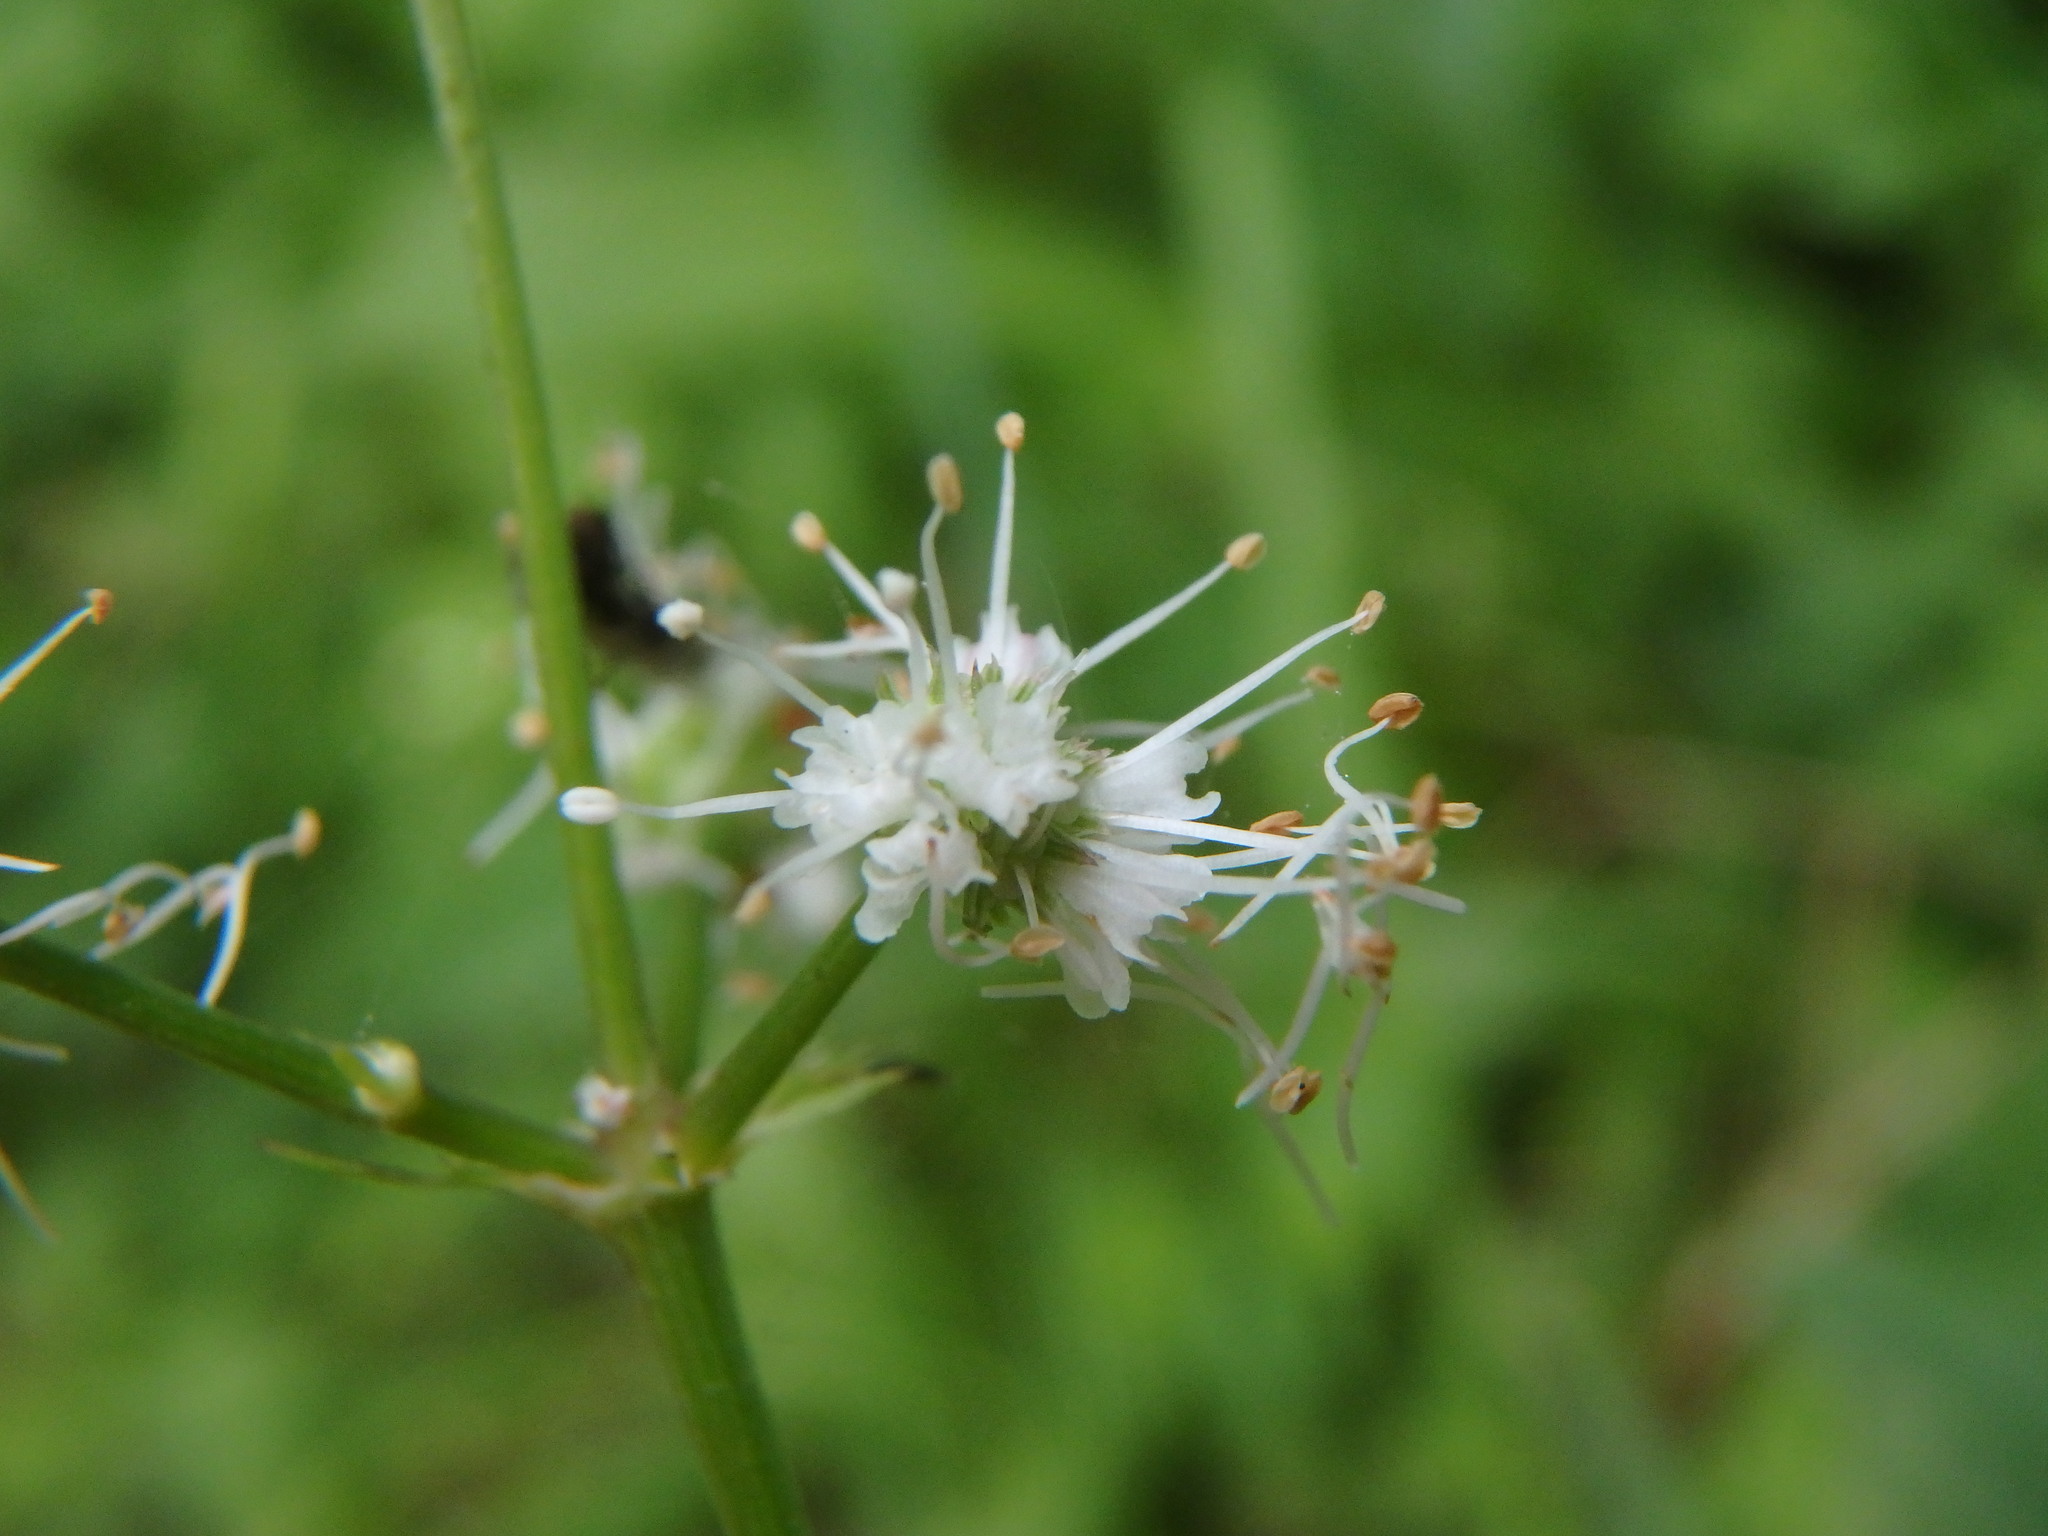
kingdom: Plantae
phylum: Tracheophyta
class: Magnoliopsida
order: Apiales
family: Apiaceae
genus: Sanicula
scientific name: Sanicula europaea
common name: Sanicle
